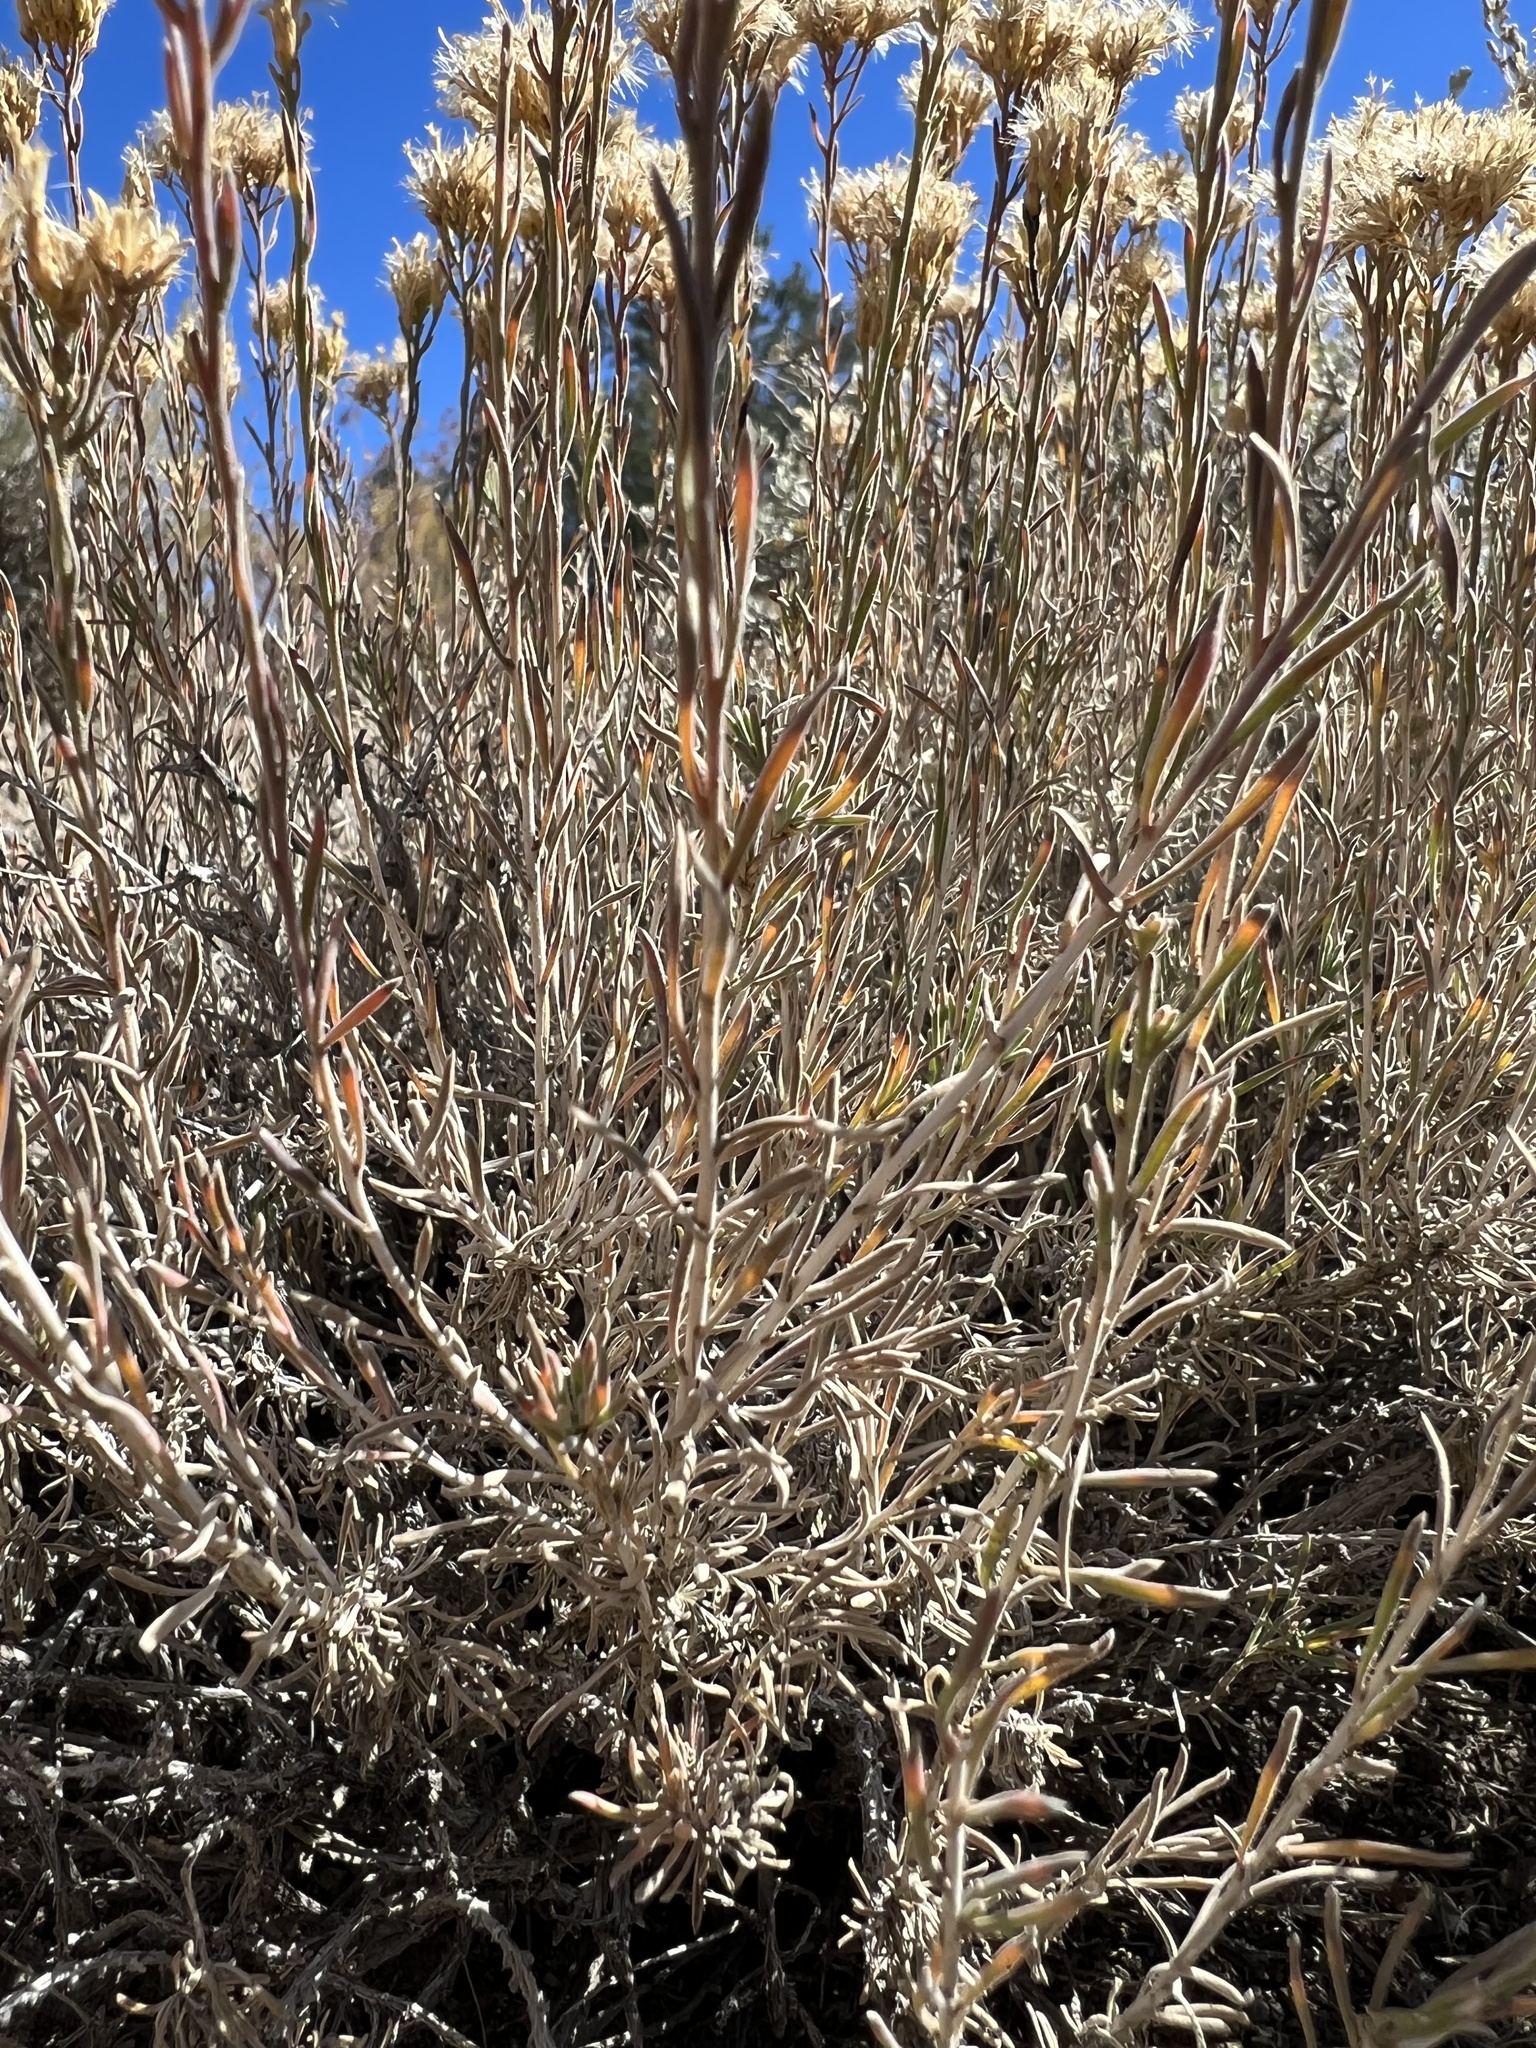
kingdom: Plantae
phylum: Tracheophyta
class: Magnoliopsida
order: Asterales
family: Asteraceae
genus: Chrysothamnus
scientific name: Chrysothamnus viscidiflorus
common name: Yellow rabbitbrush
